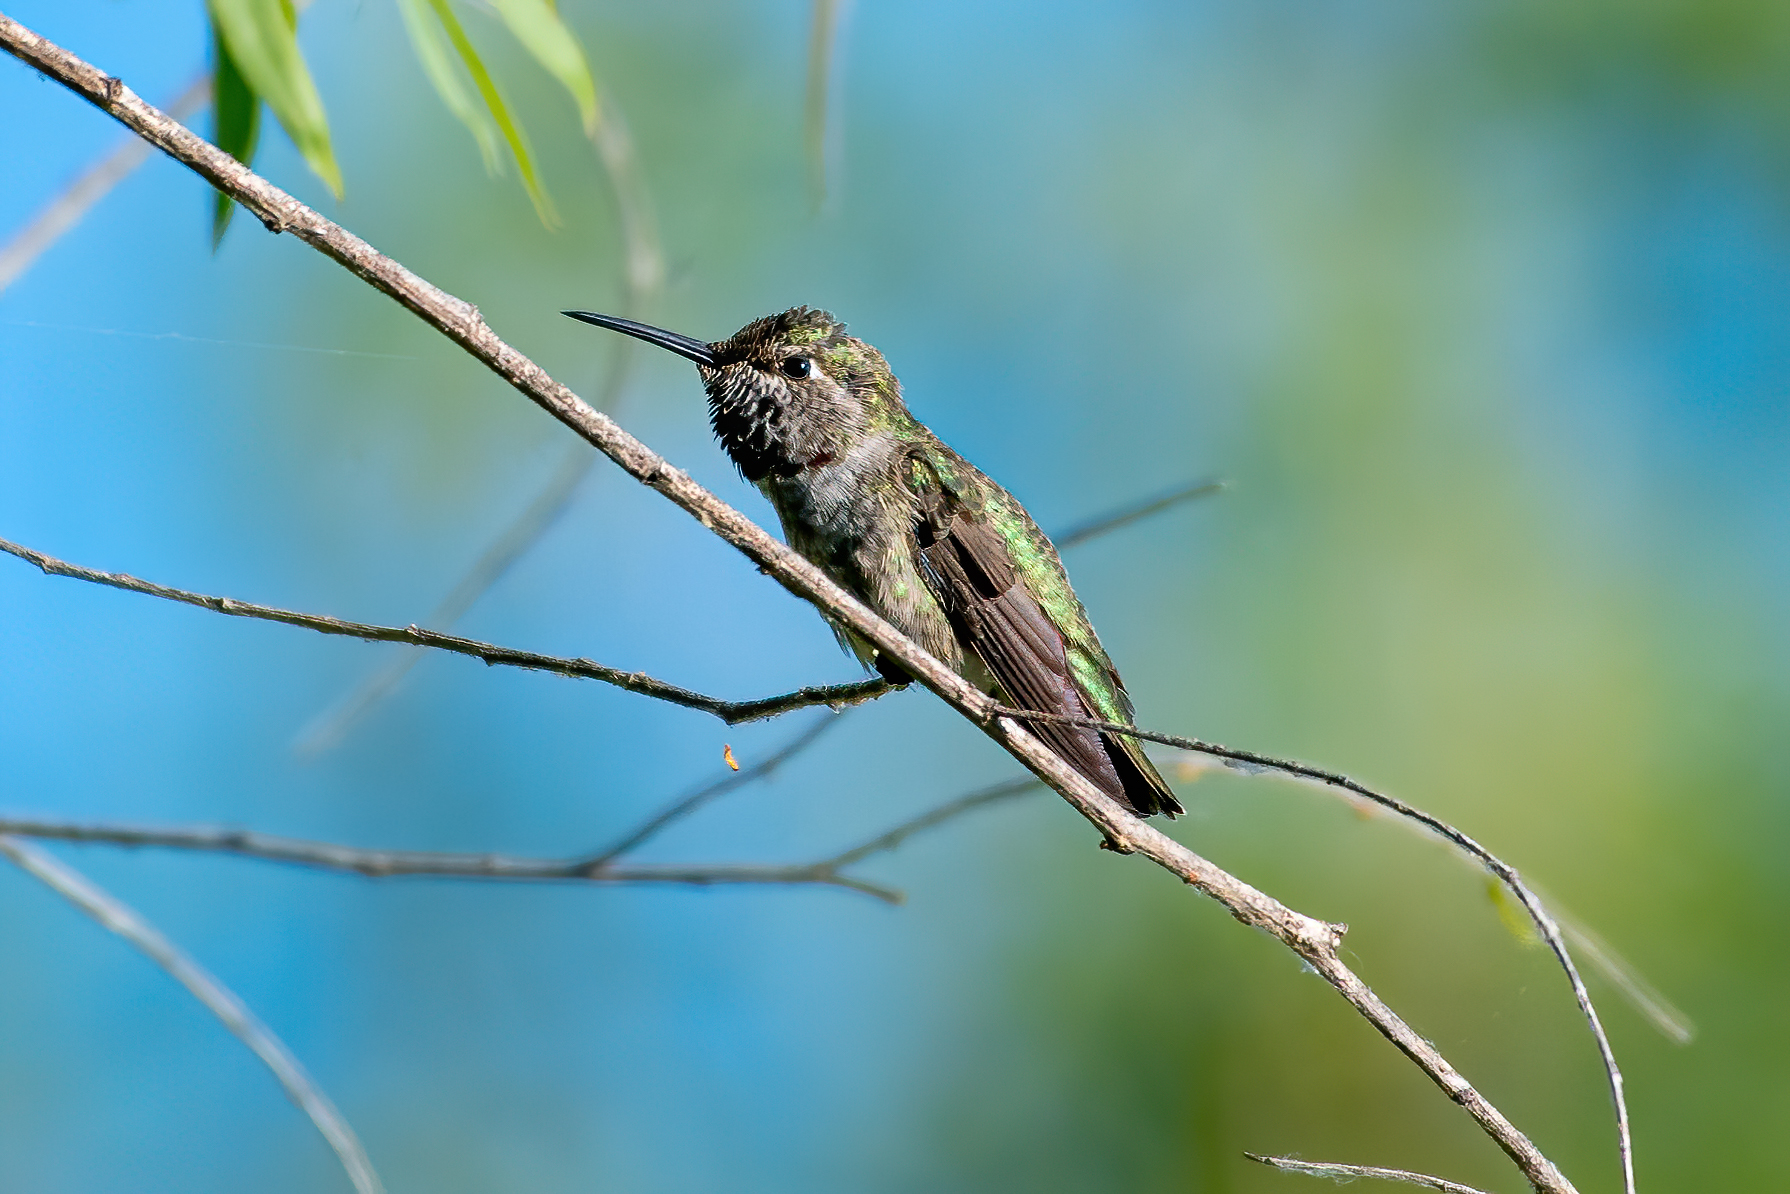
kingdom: Animalia
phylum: Chordata
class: Aves
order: Apodiformes
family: Trochilidae
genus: Calypte
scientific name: Calypte anna
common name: Anna's hummingbird
